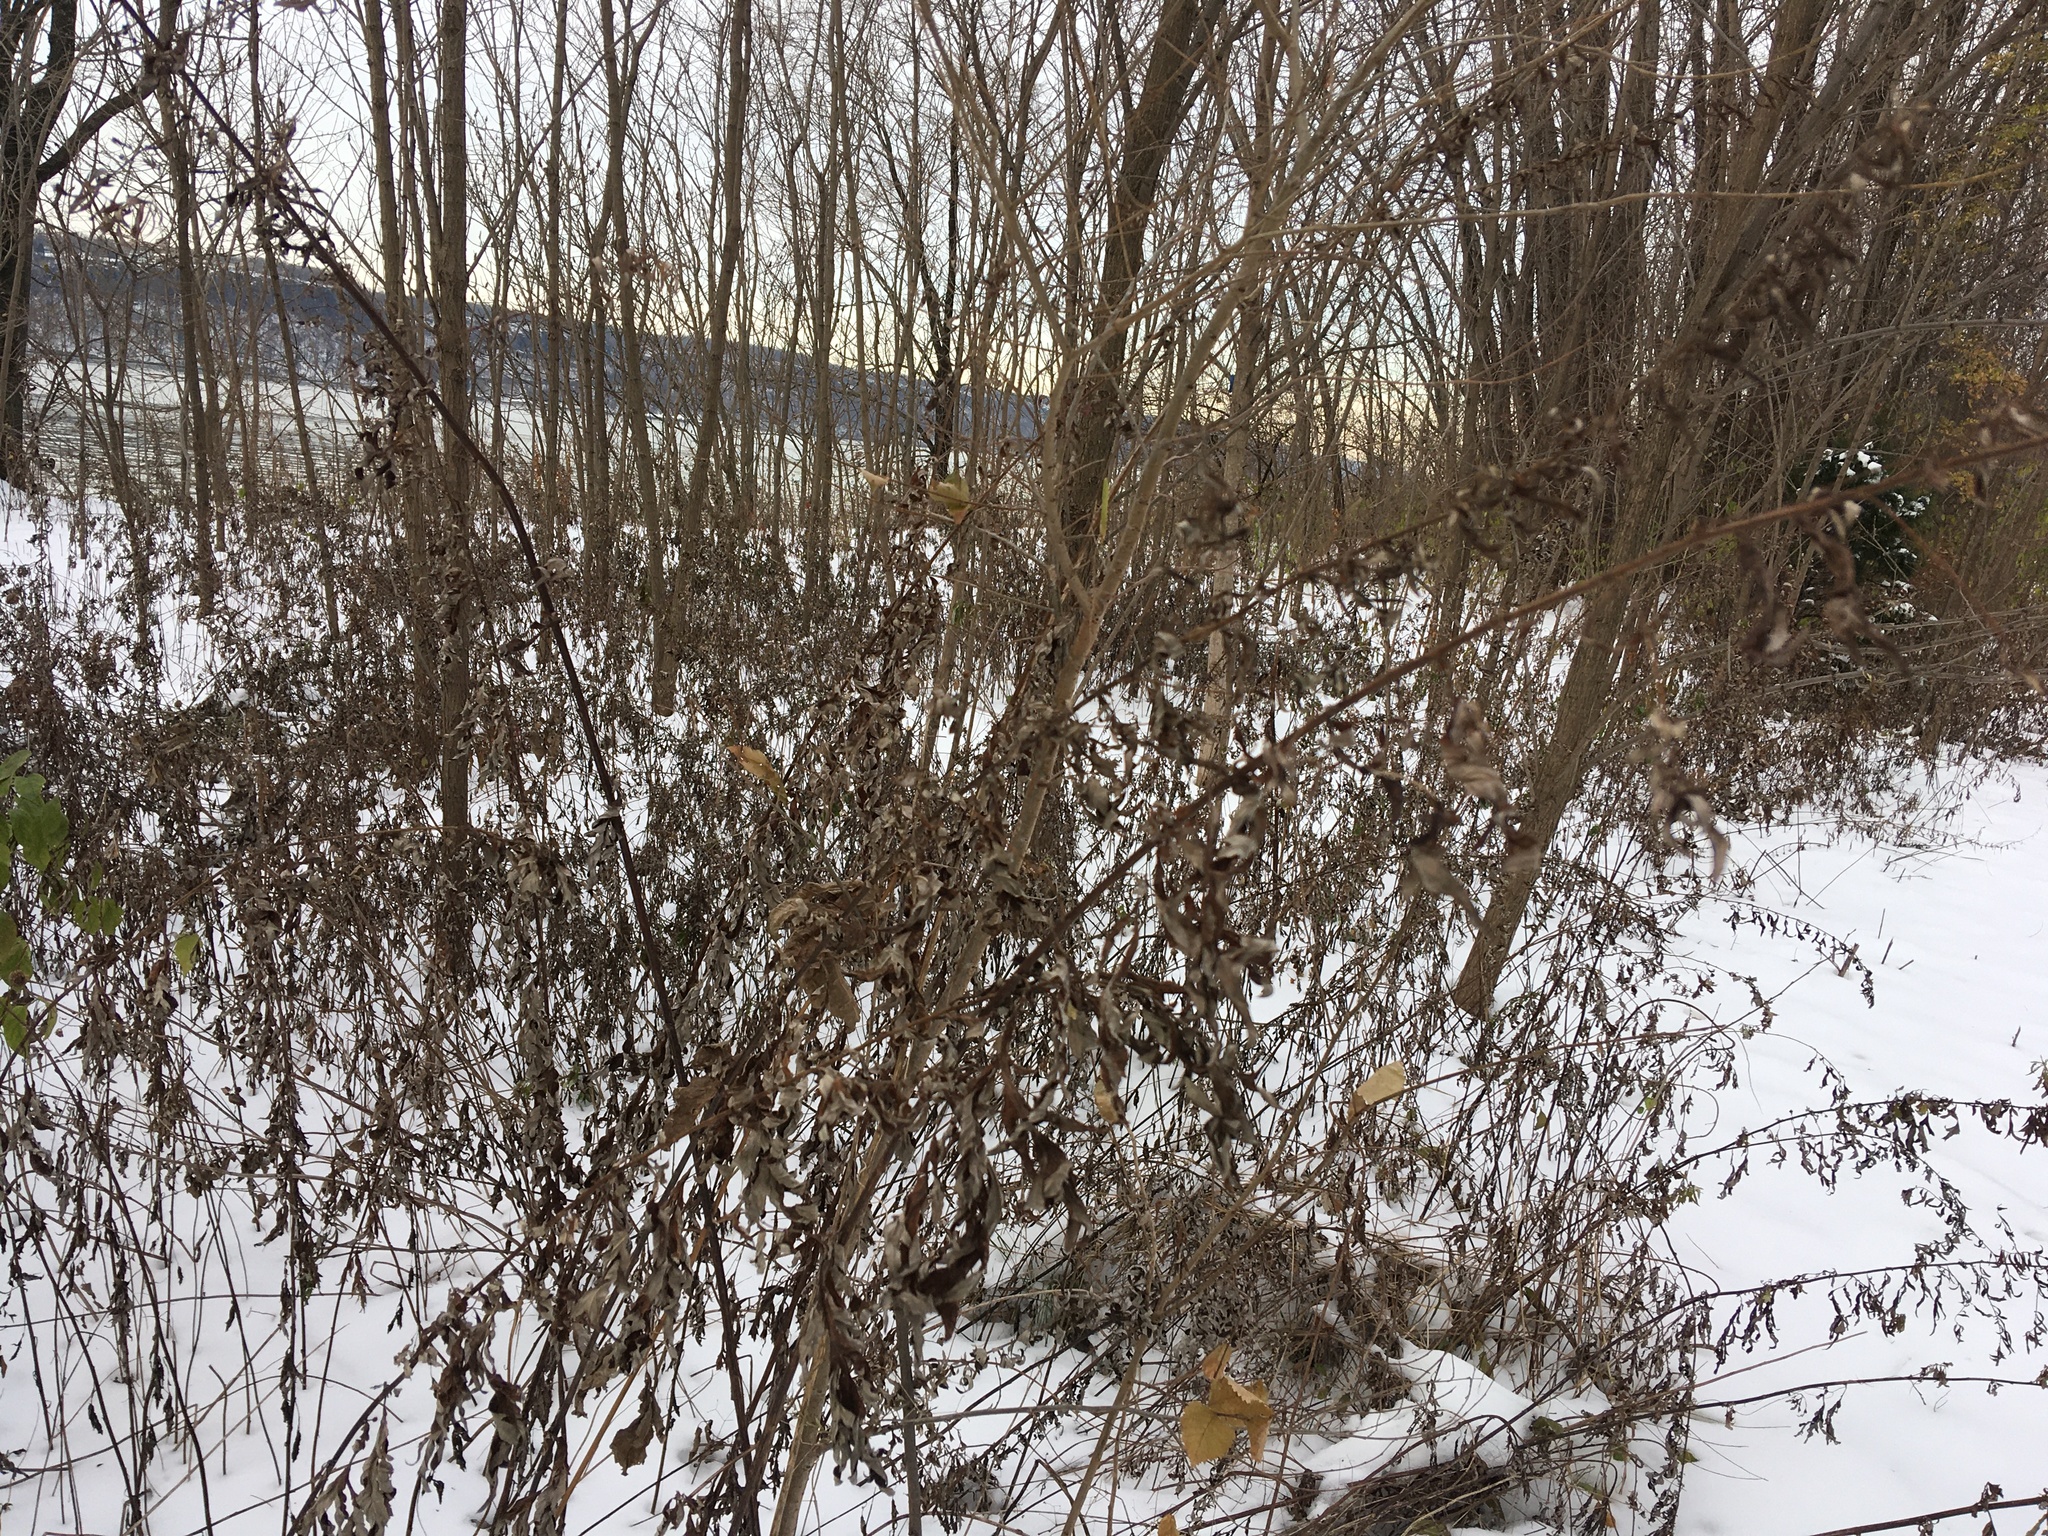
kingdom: Plantae
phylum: Tracheophyta
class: Magnoliopsida
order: Asterales
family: Asteraceae
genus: Artemisia
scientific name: Artemisia vulgaris
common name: Mugwort
